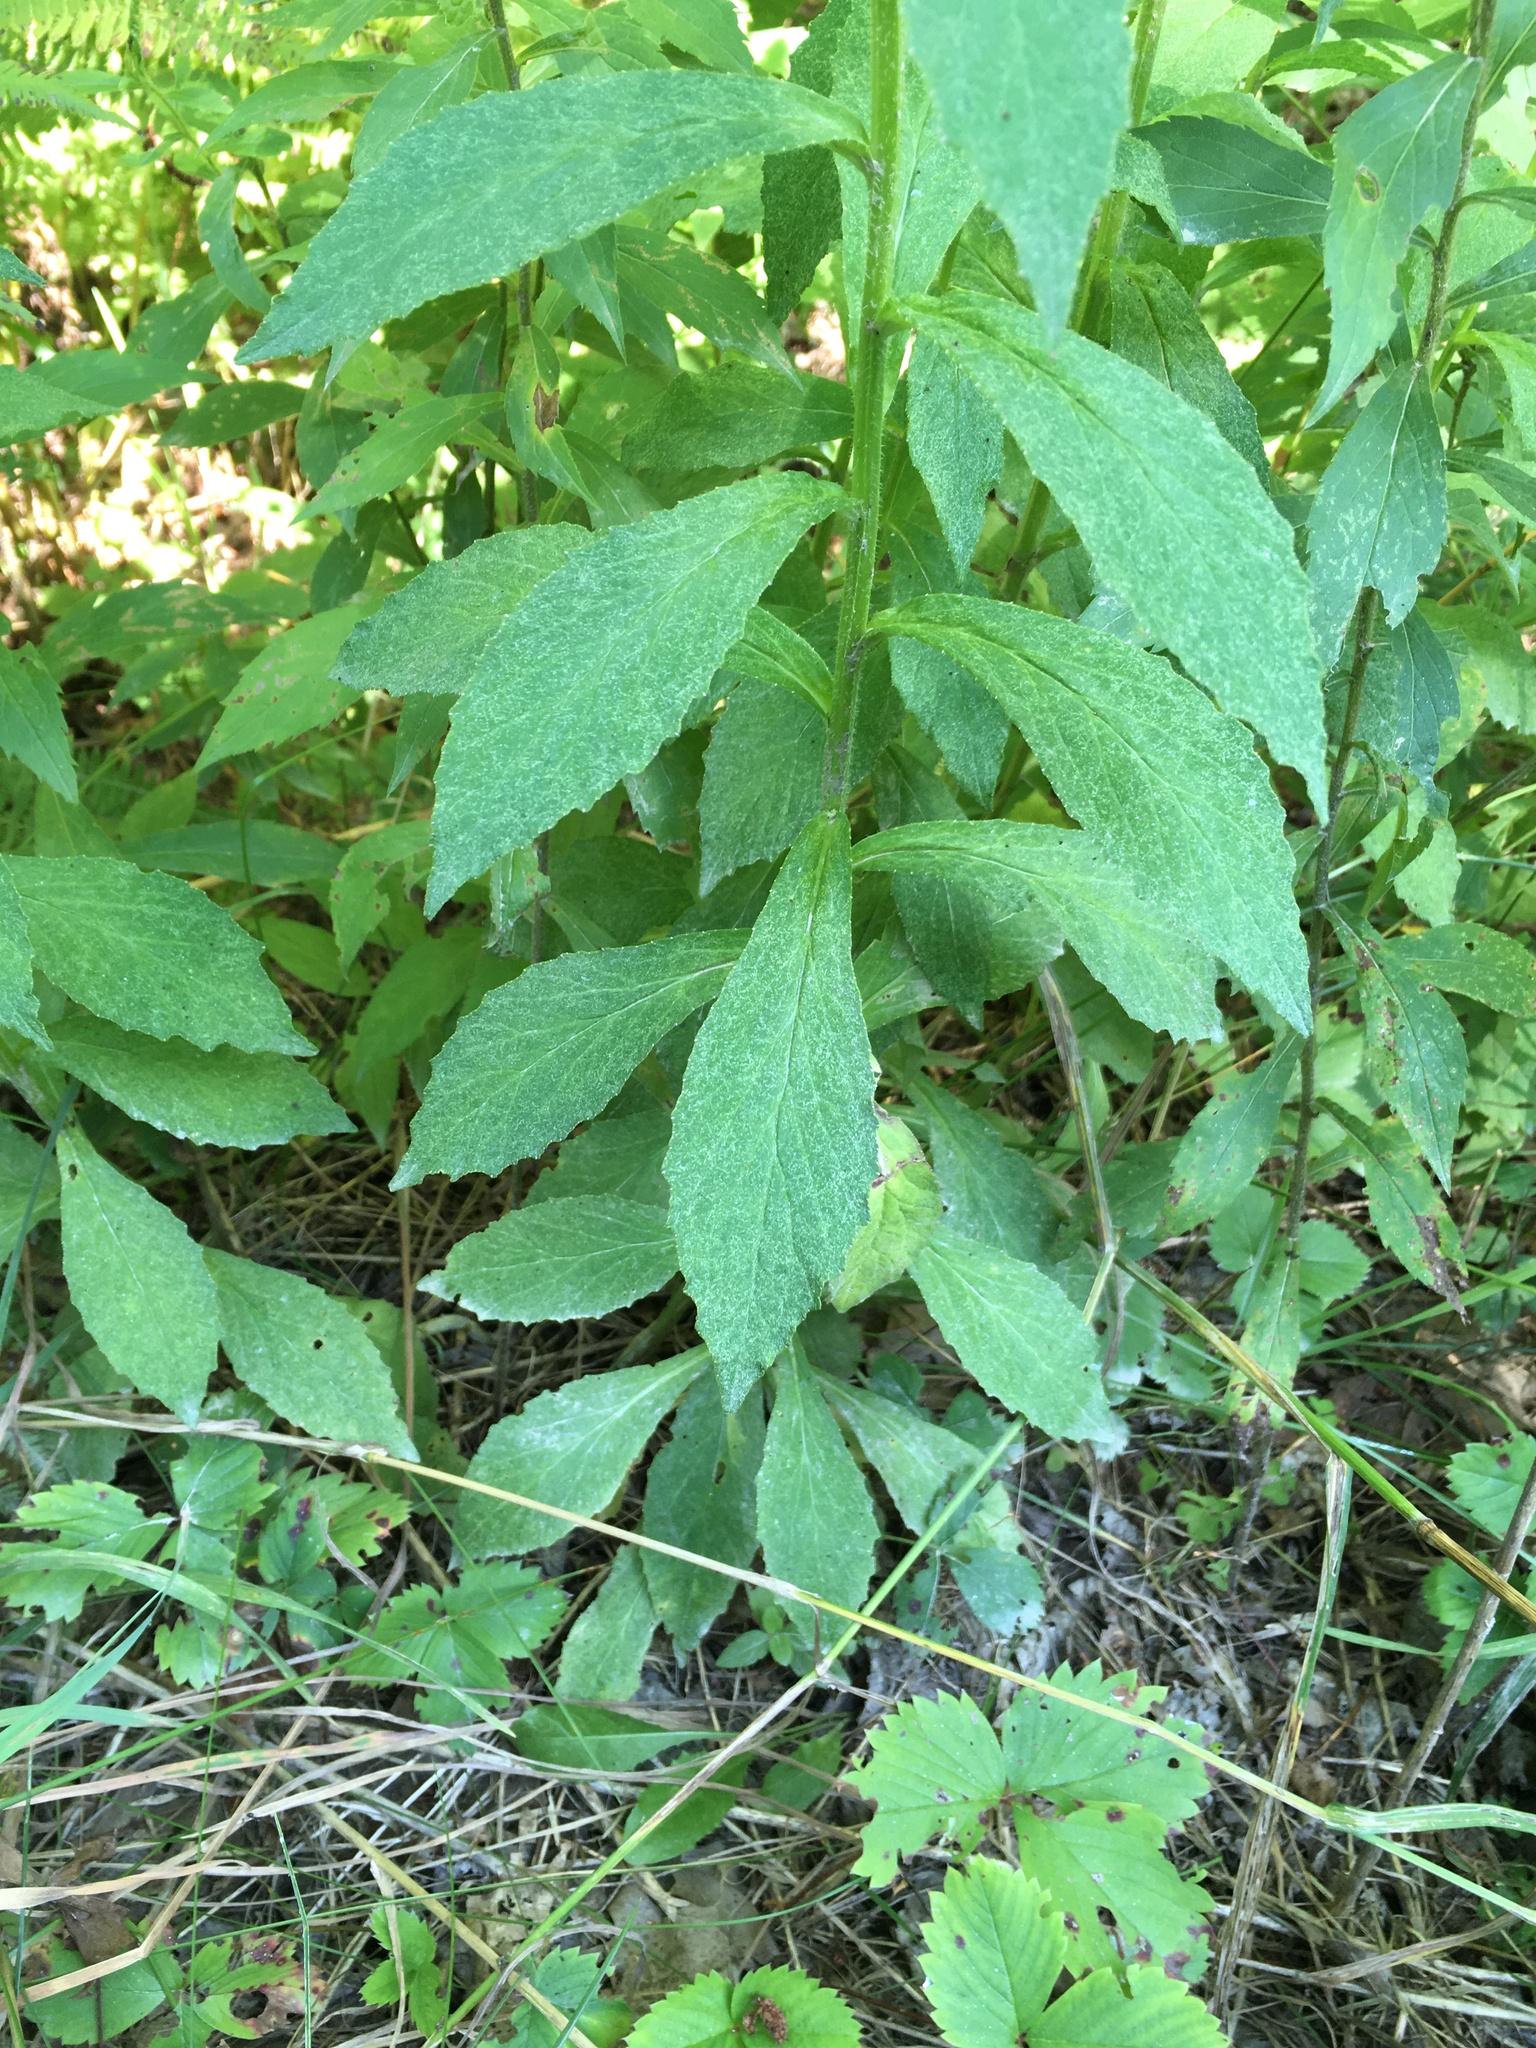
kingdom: Plantae
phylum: Tracheophyta
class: Magnoliopsida
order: Asterales
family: Campanulaceae
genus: Lobelia
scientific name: Lobelia siphilitica
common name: Great lobelia
